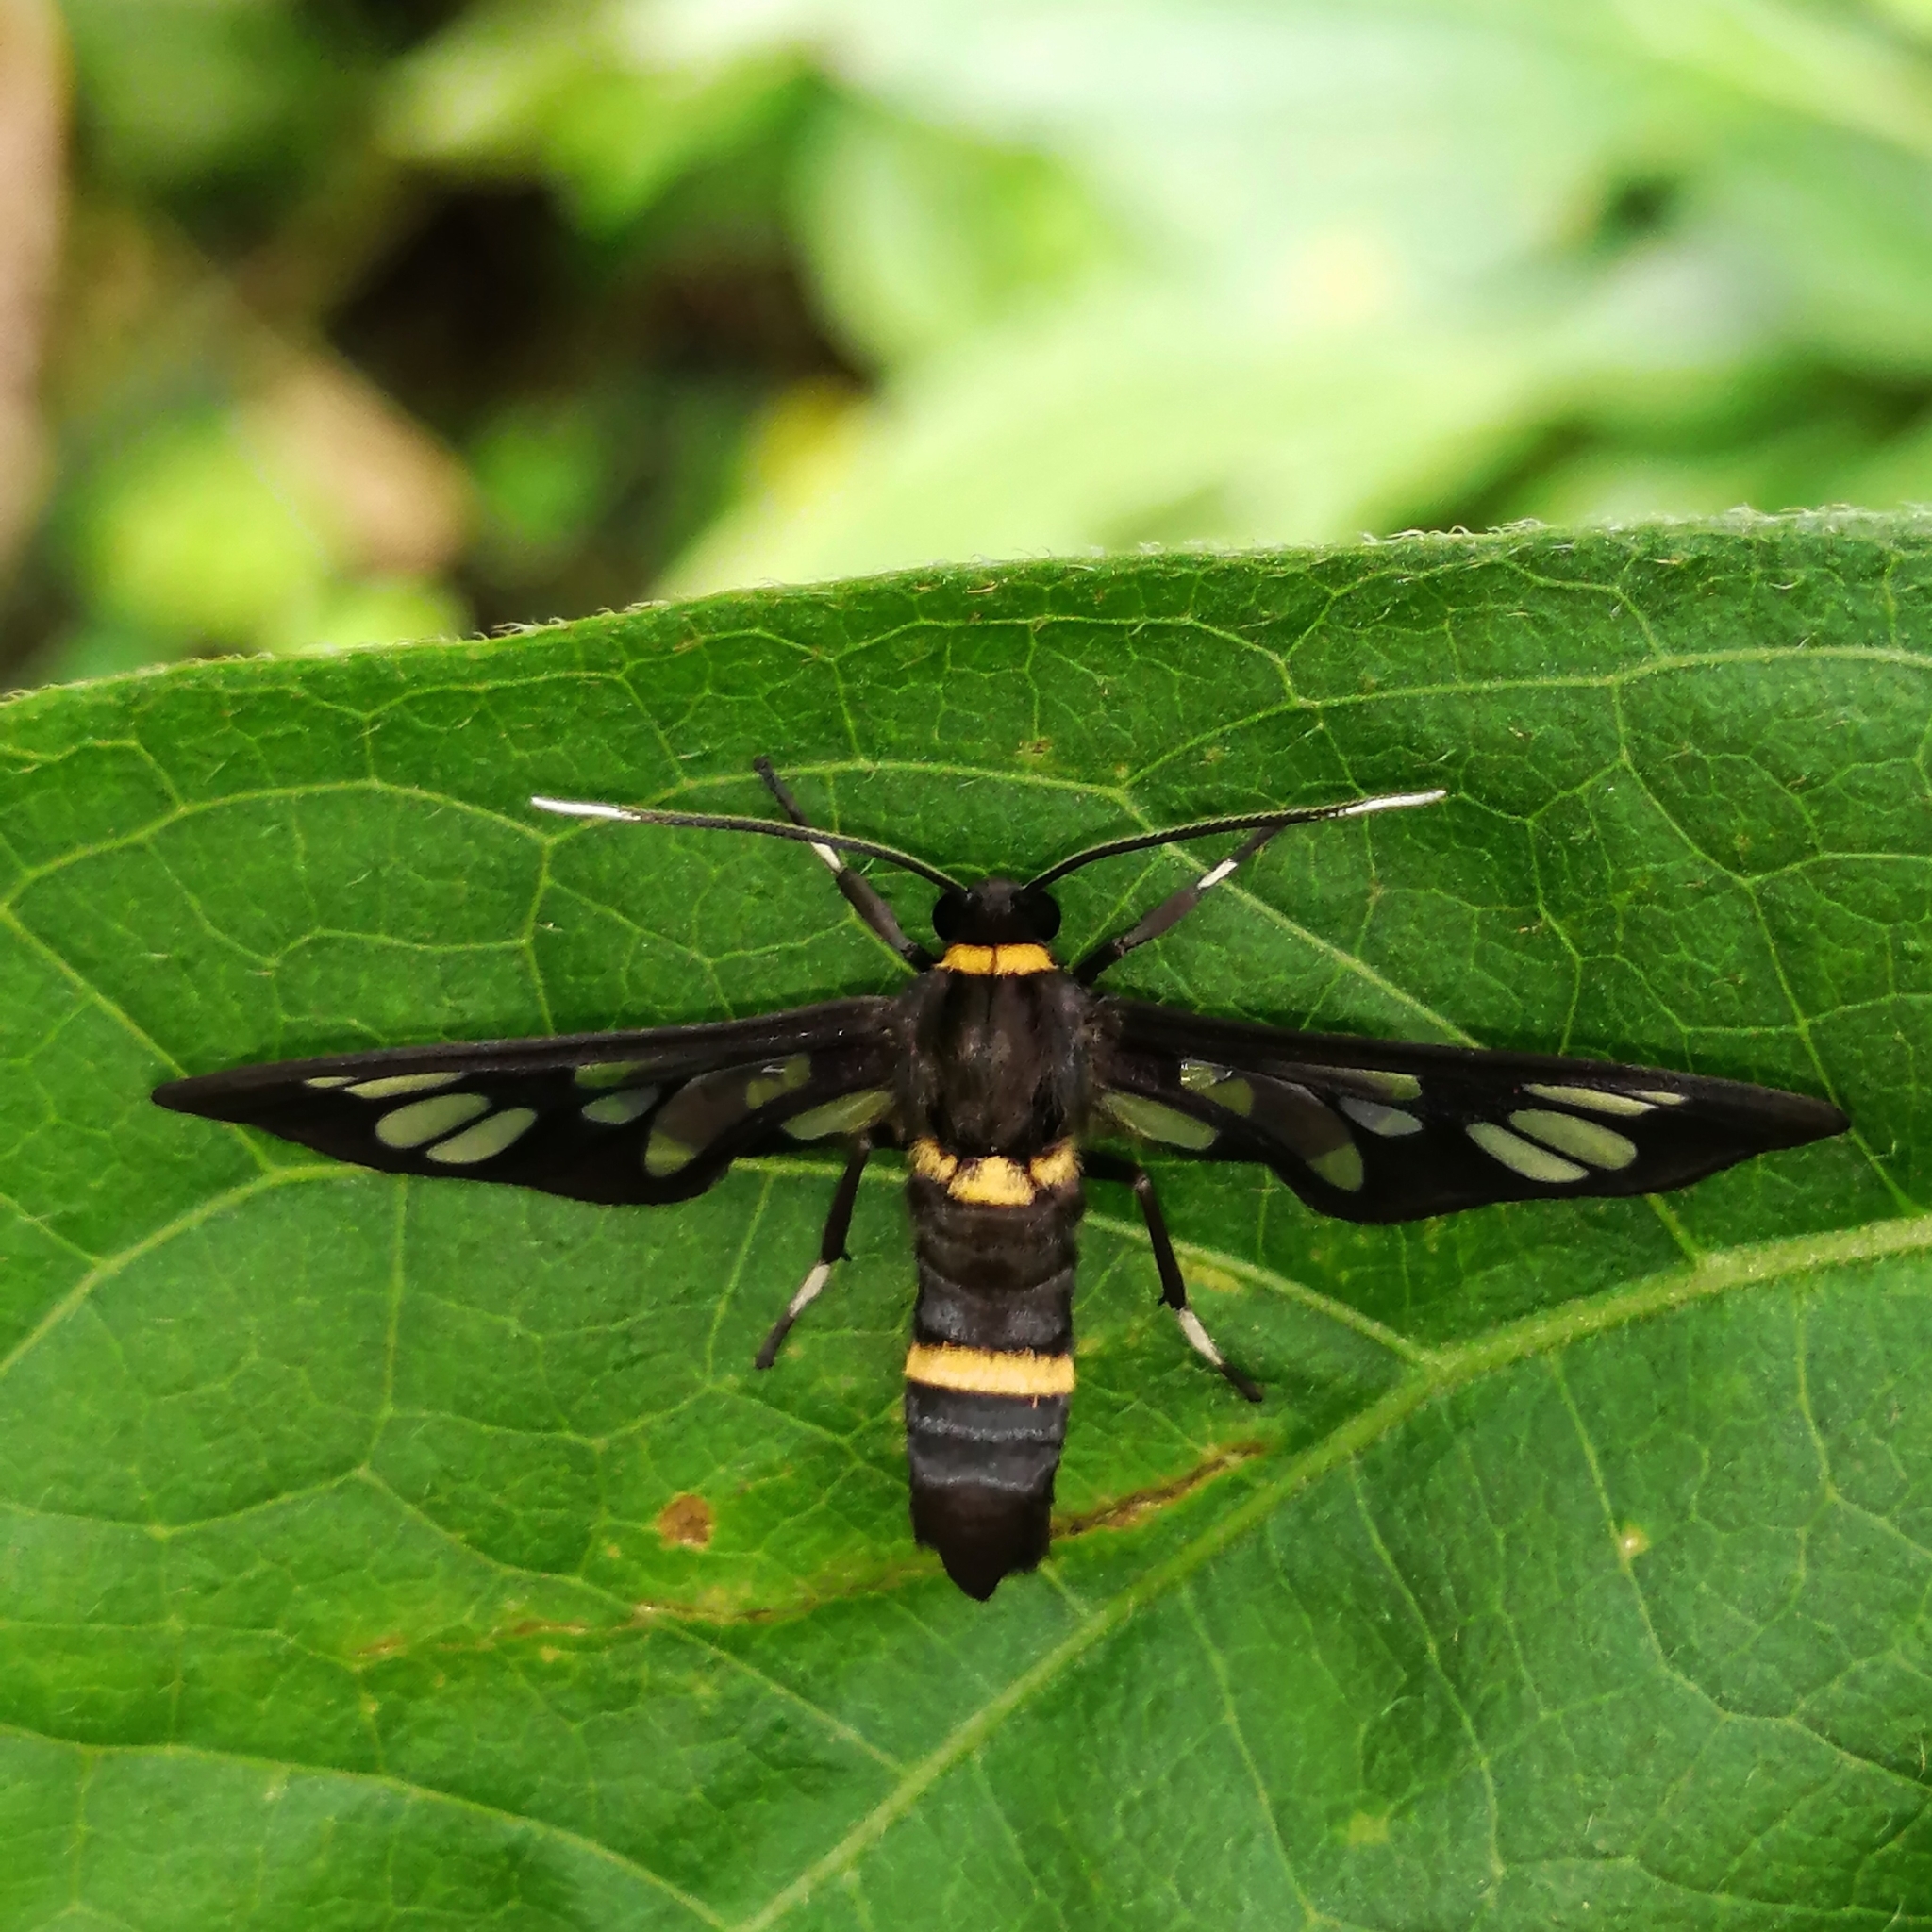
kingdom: Animalia
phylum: Arthropoda
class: Insecta
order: Lepidoptera
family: Erebidae
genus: Syntomoides
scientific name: Syntomoides imaon
